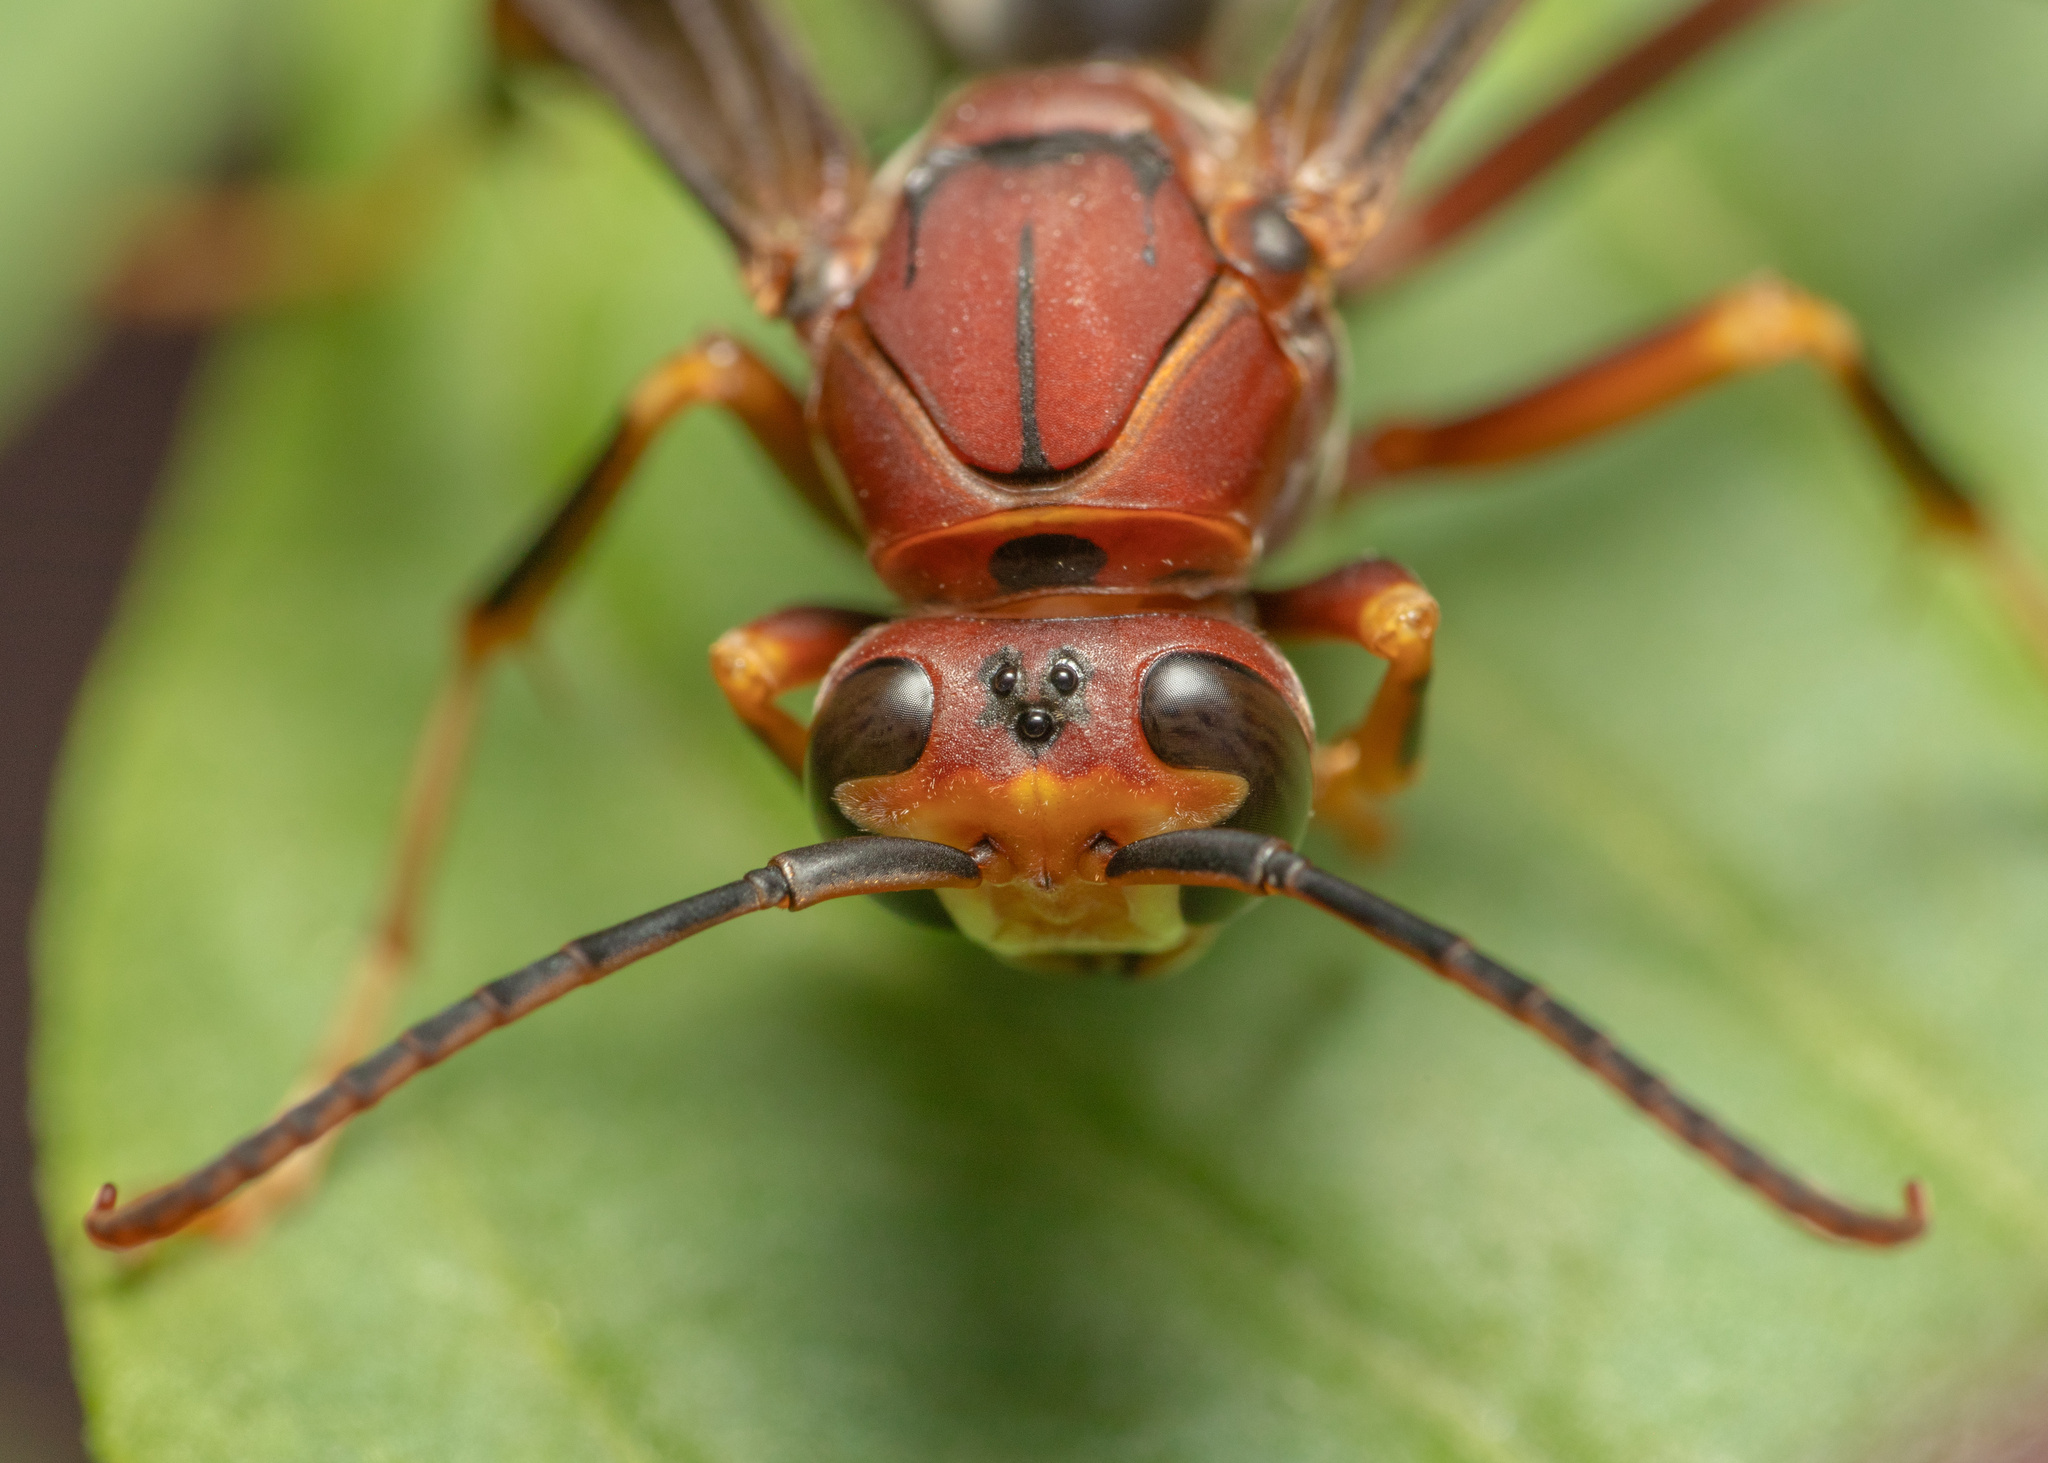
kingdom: Animalia
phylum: Arthropoda
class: Insecta
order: Hymenoptera
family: Vespidae
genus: Fuscopolistes
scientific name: Fuscopolistes
